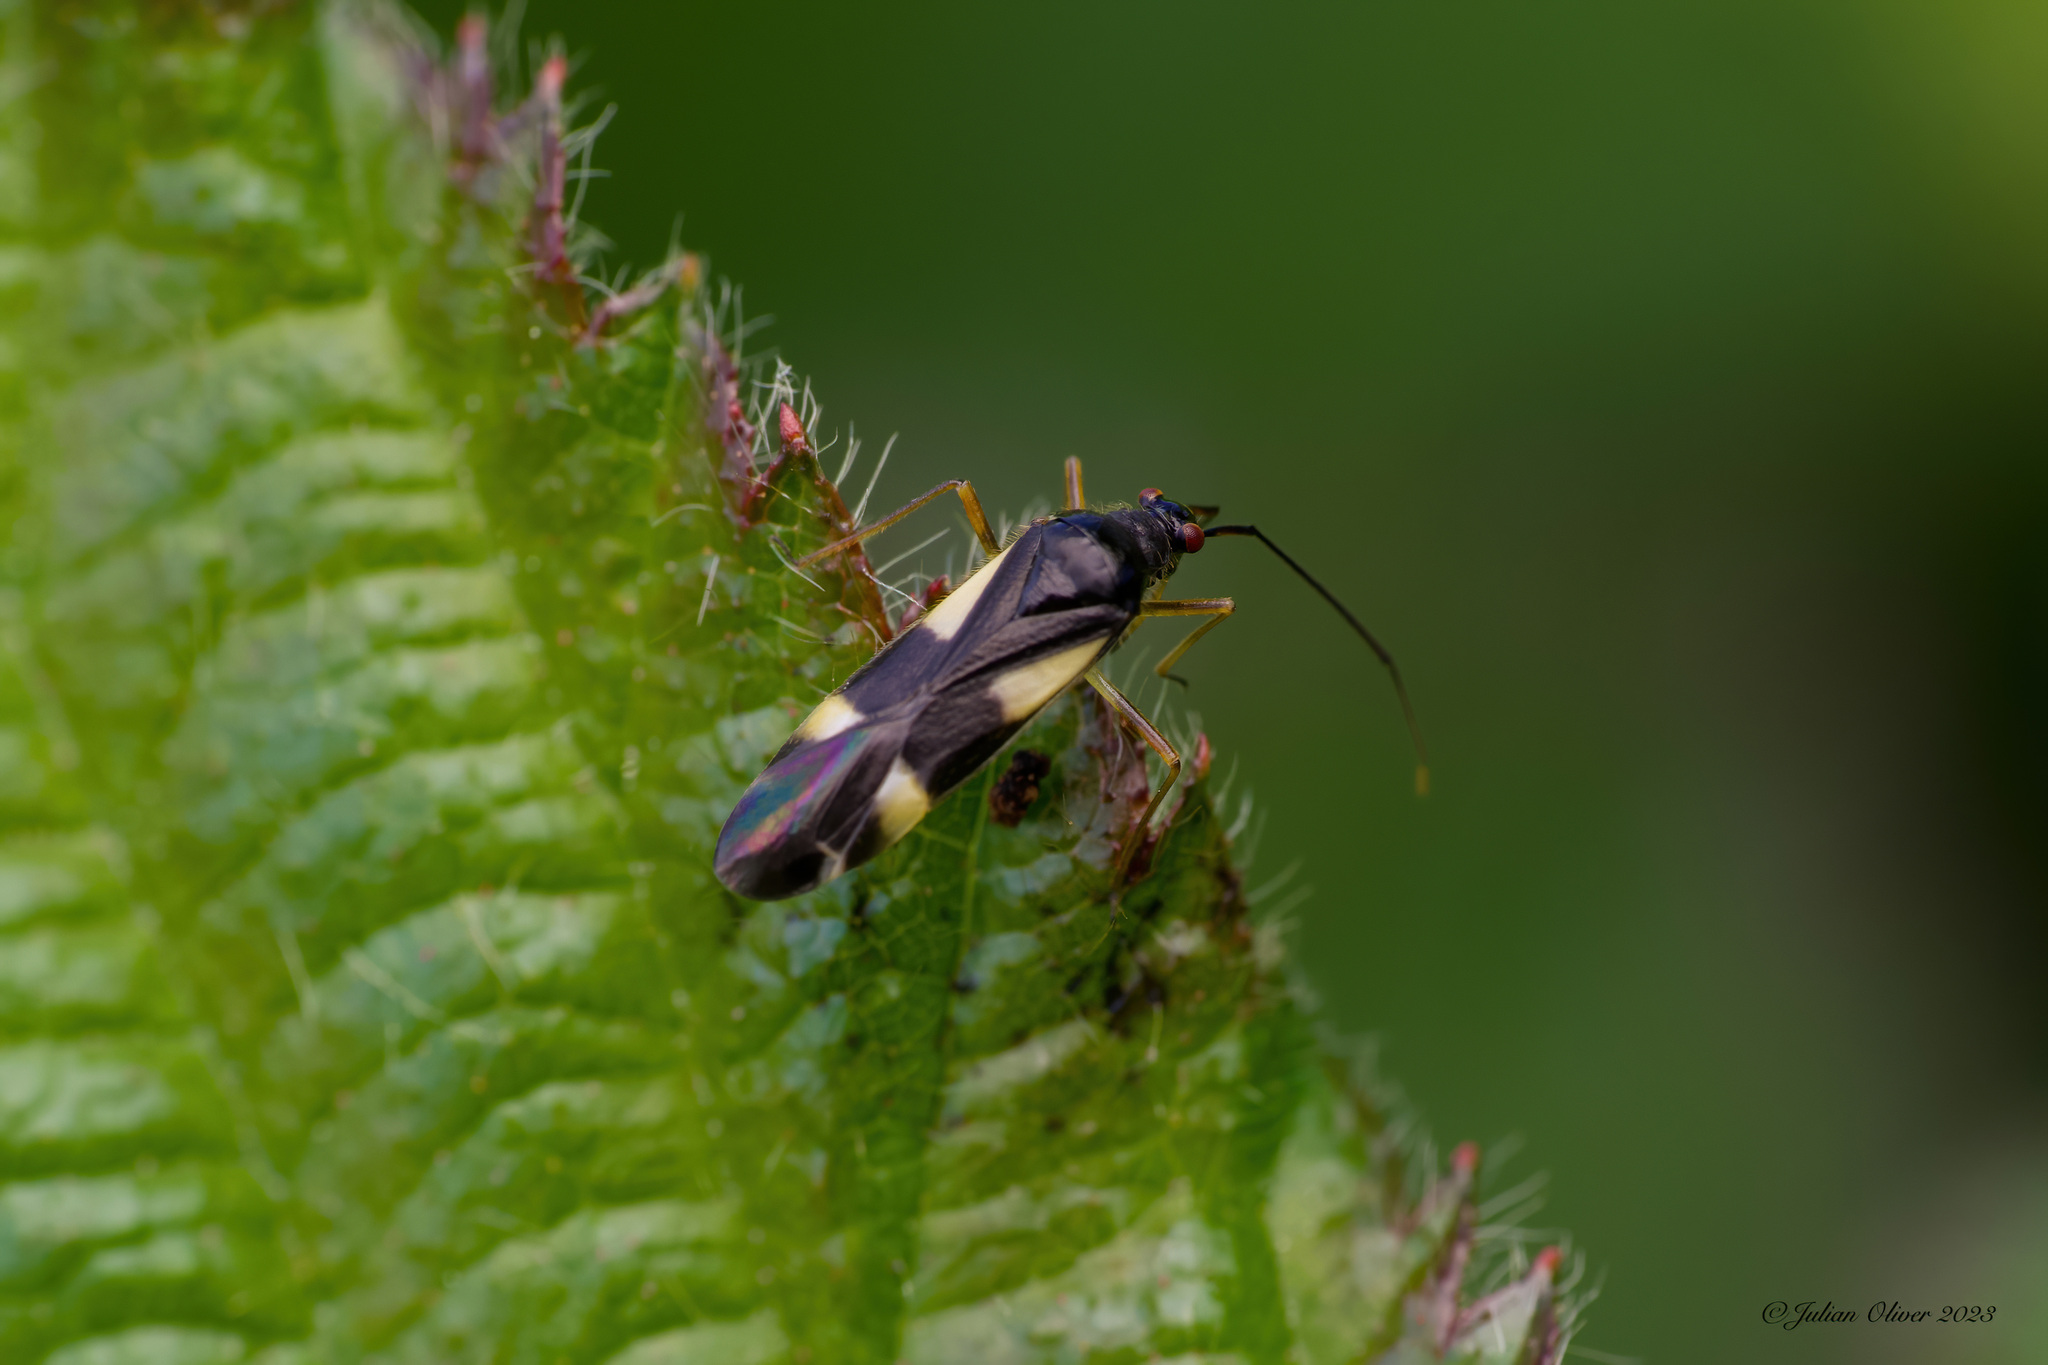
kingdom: Animalia
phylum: Arthropoda
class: Insecta
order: Hemiptera
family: Miridae
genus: Dryophilocoris
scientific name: Dryophilocoris flavoquadrimaculatus
